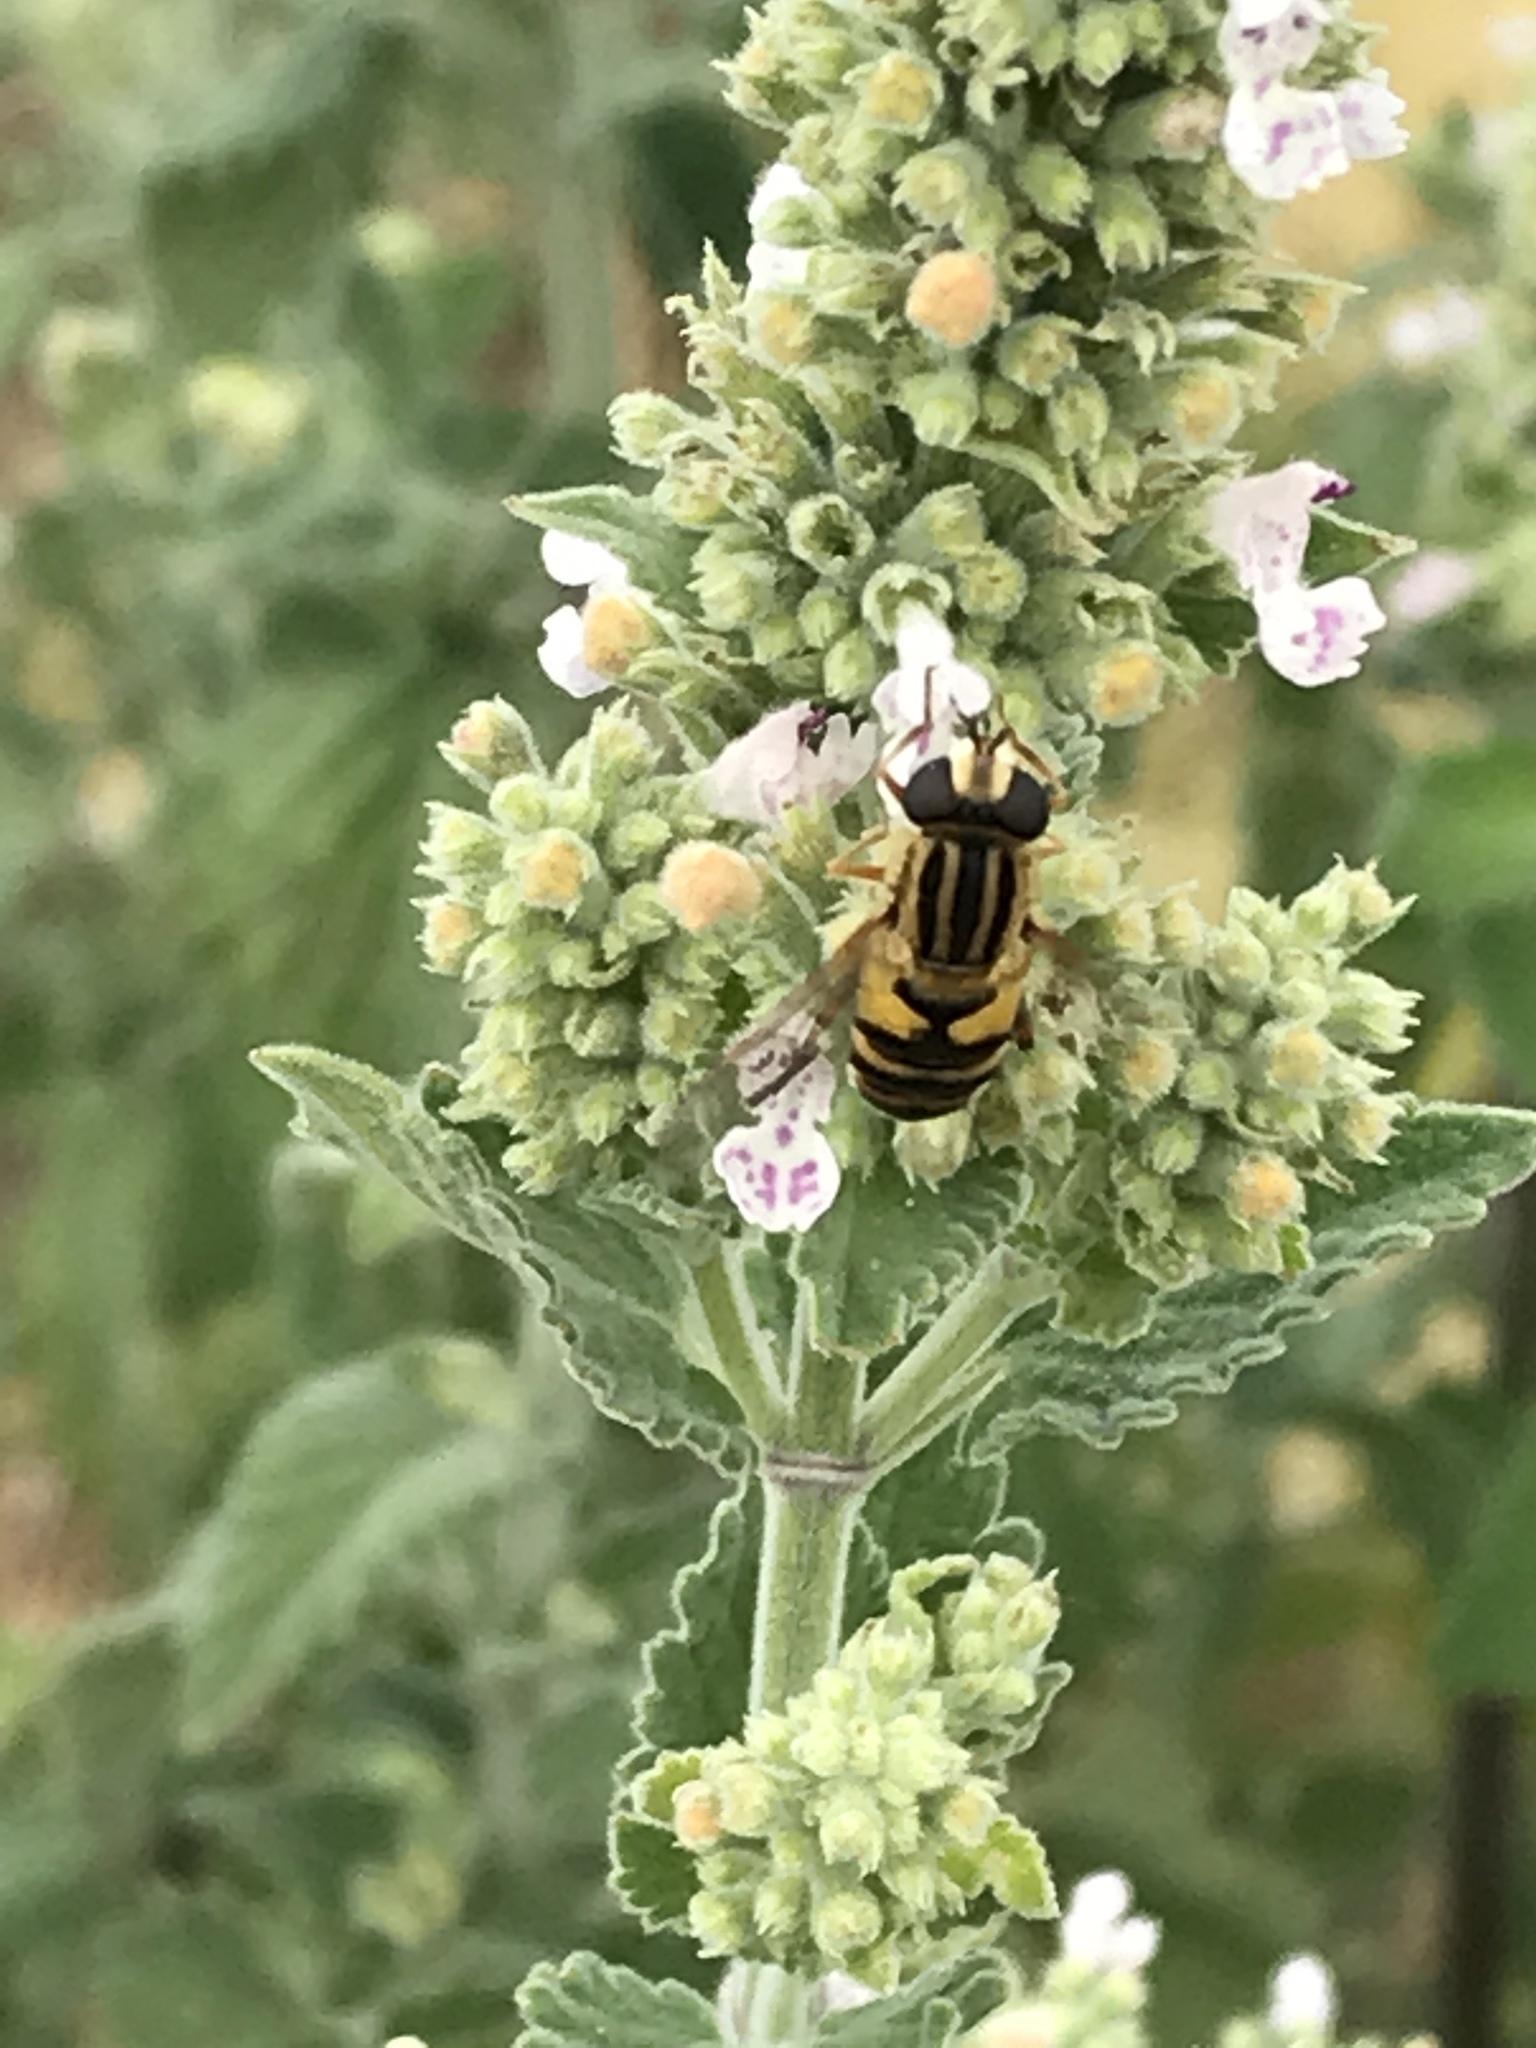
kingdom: Animalia
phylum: Arthropoda
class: Insecta
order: Diptera
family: Syrphidae
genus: Helophilus
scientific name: Helophilus latifrons
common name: Broad-headed marsh fly
